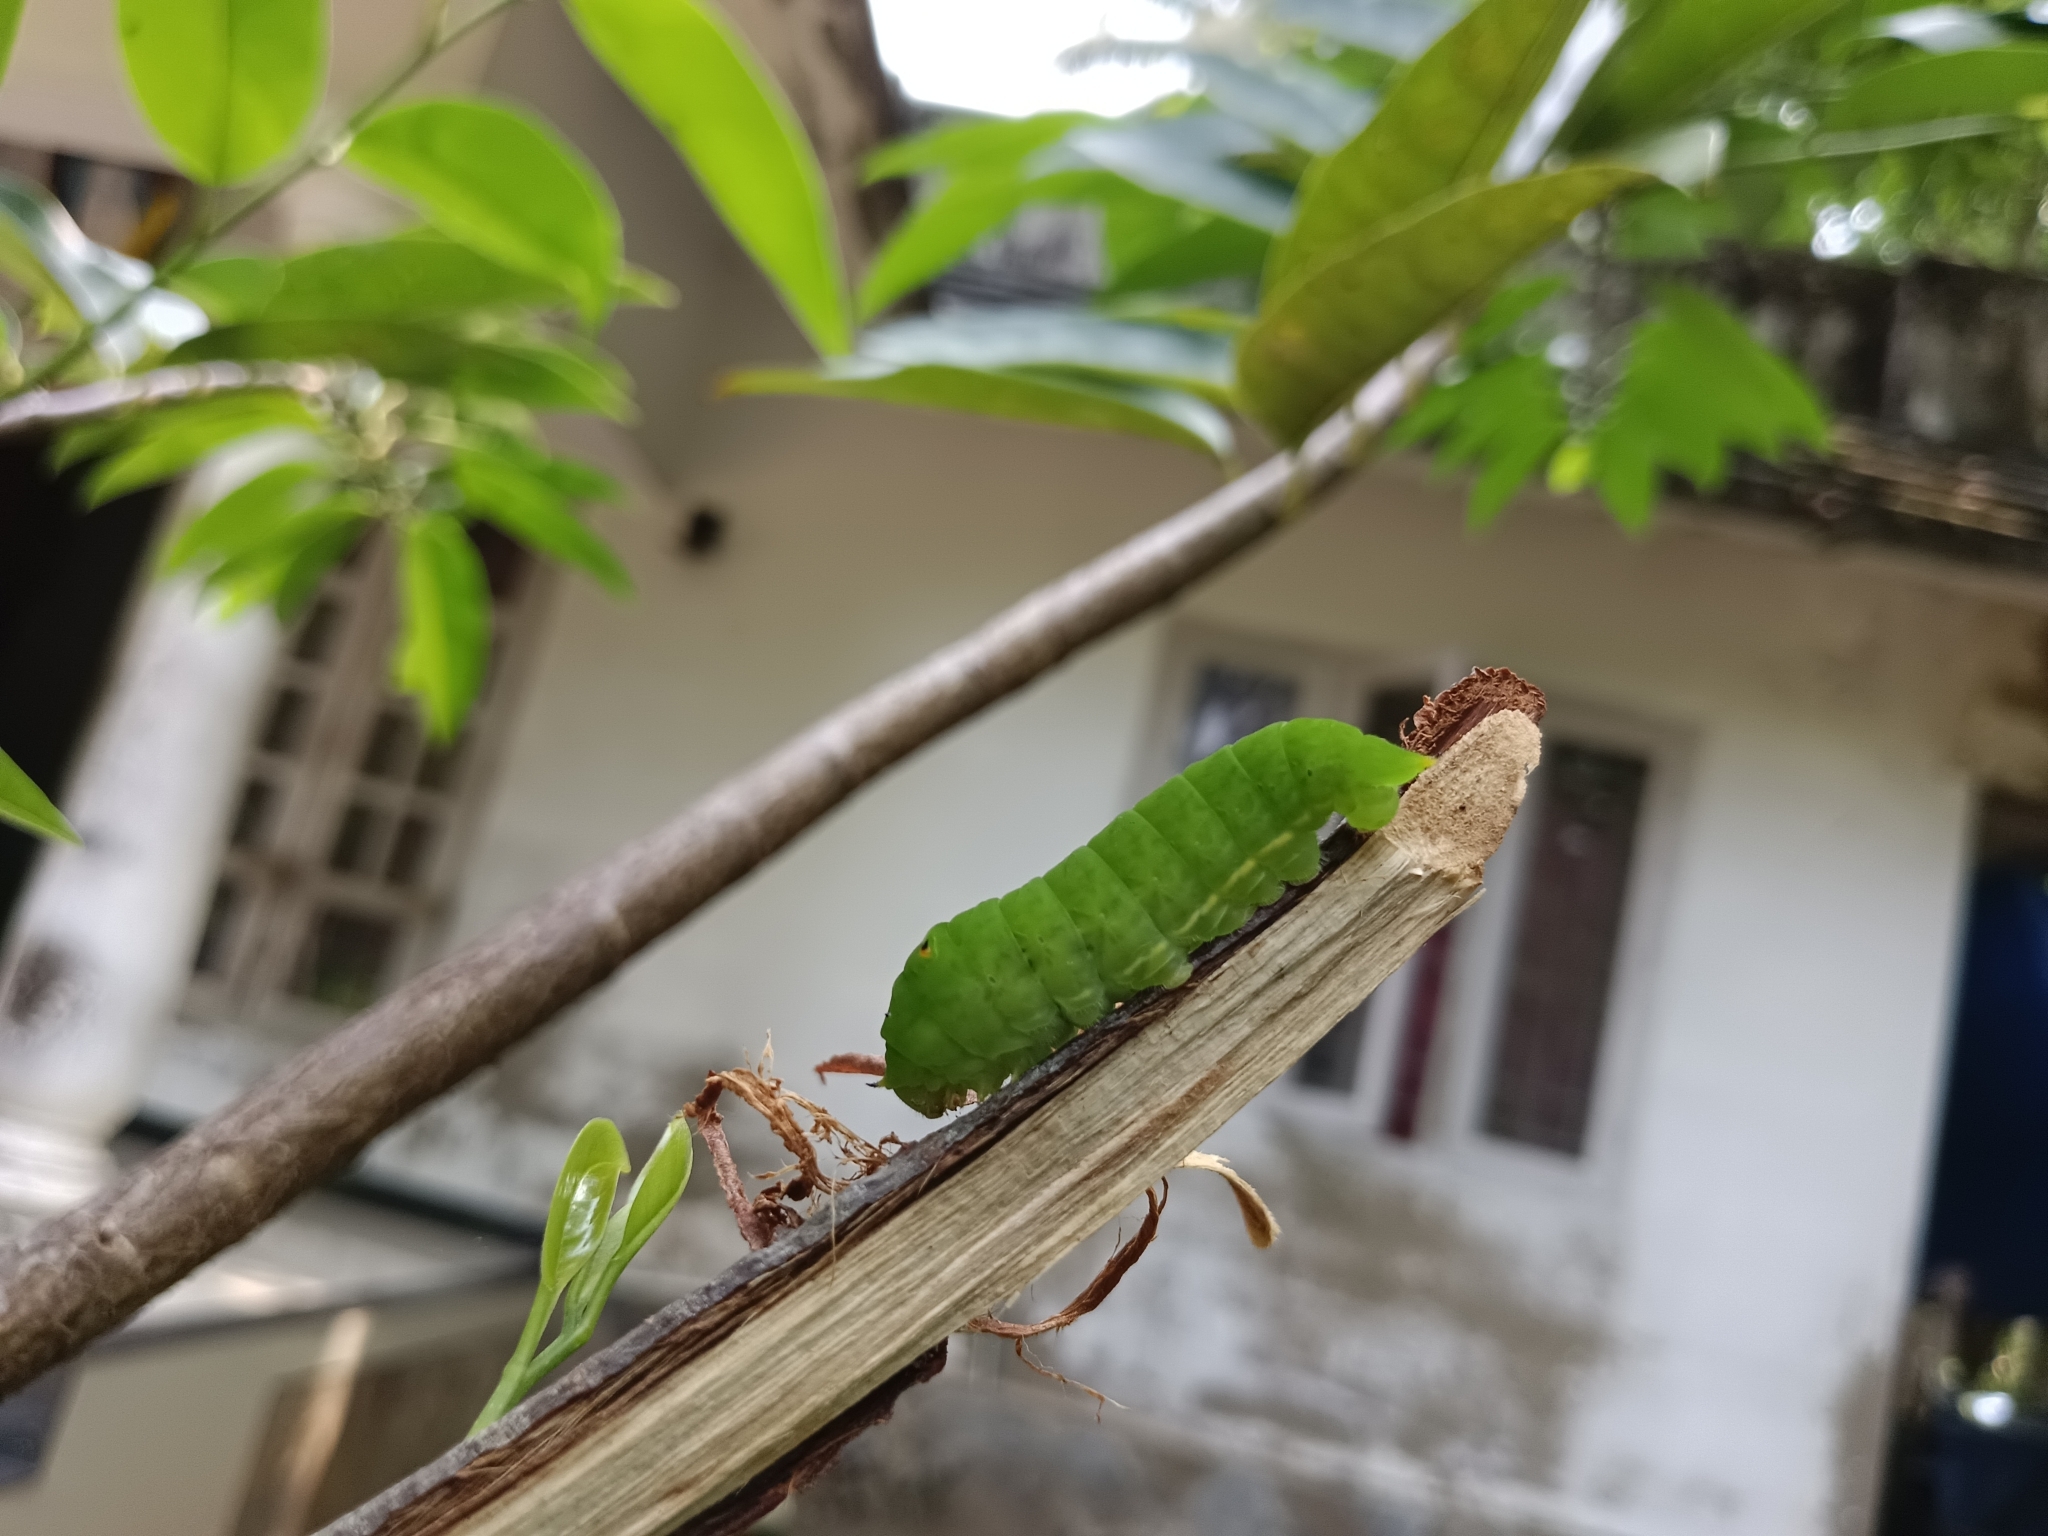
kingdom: Animalia
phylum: Arthropoda
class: Insecta
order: Lepidoptera
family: Papilionidae
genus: Graphium
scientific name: Graphium agamemnon
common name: Tailed jay
